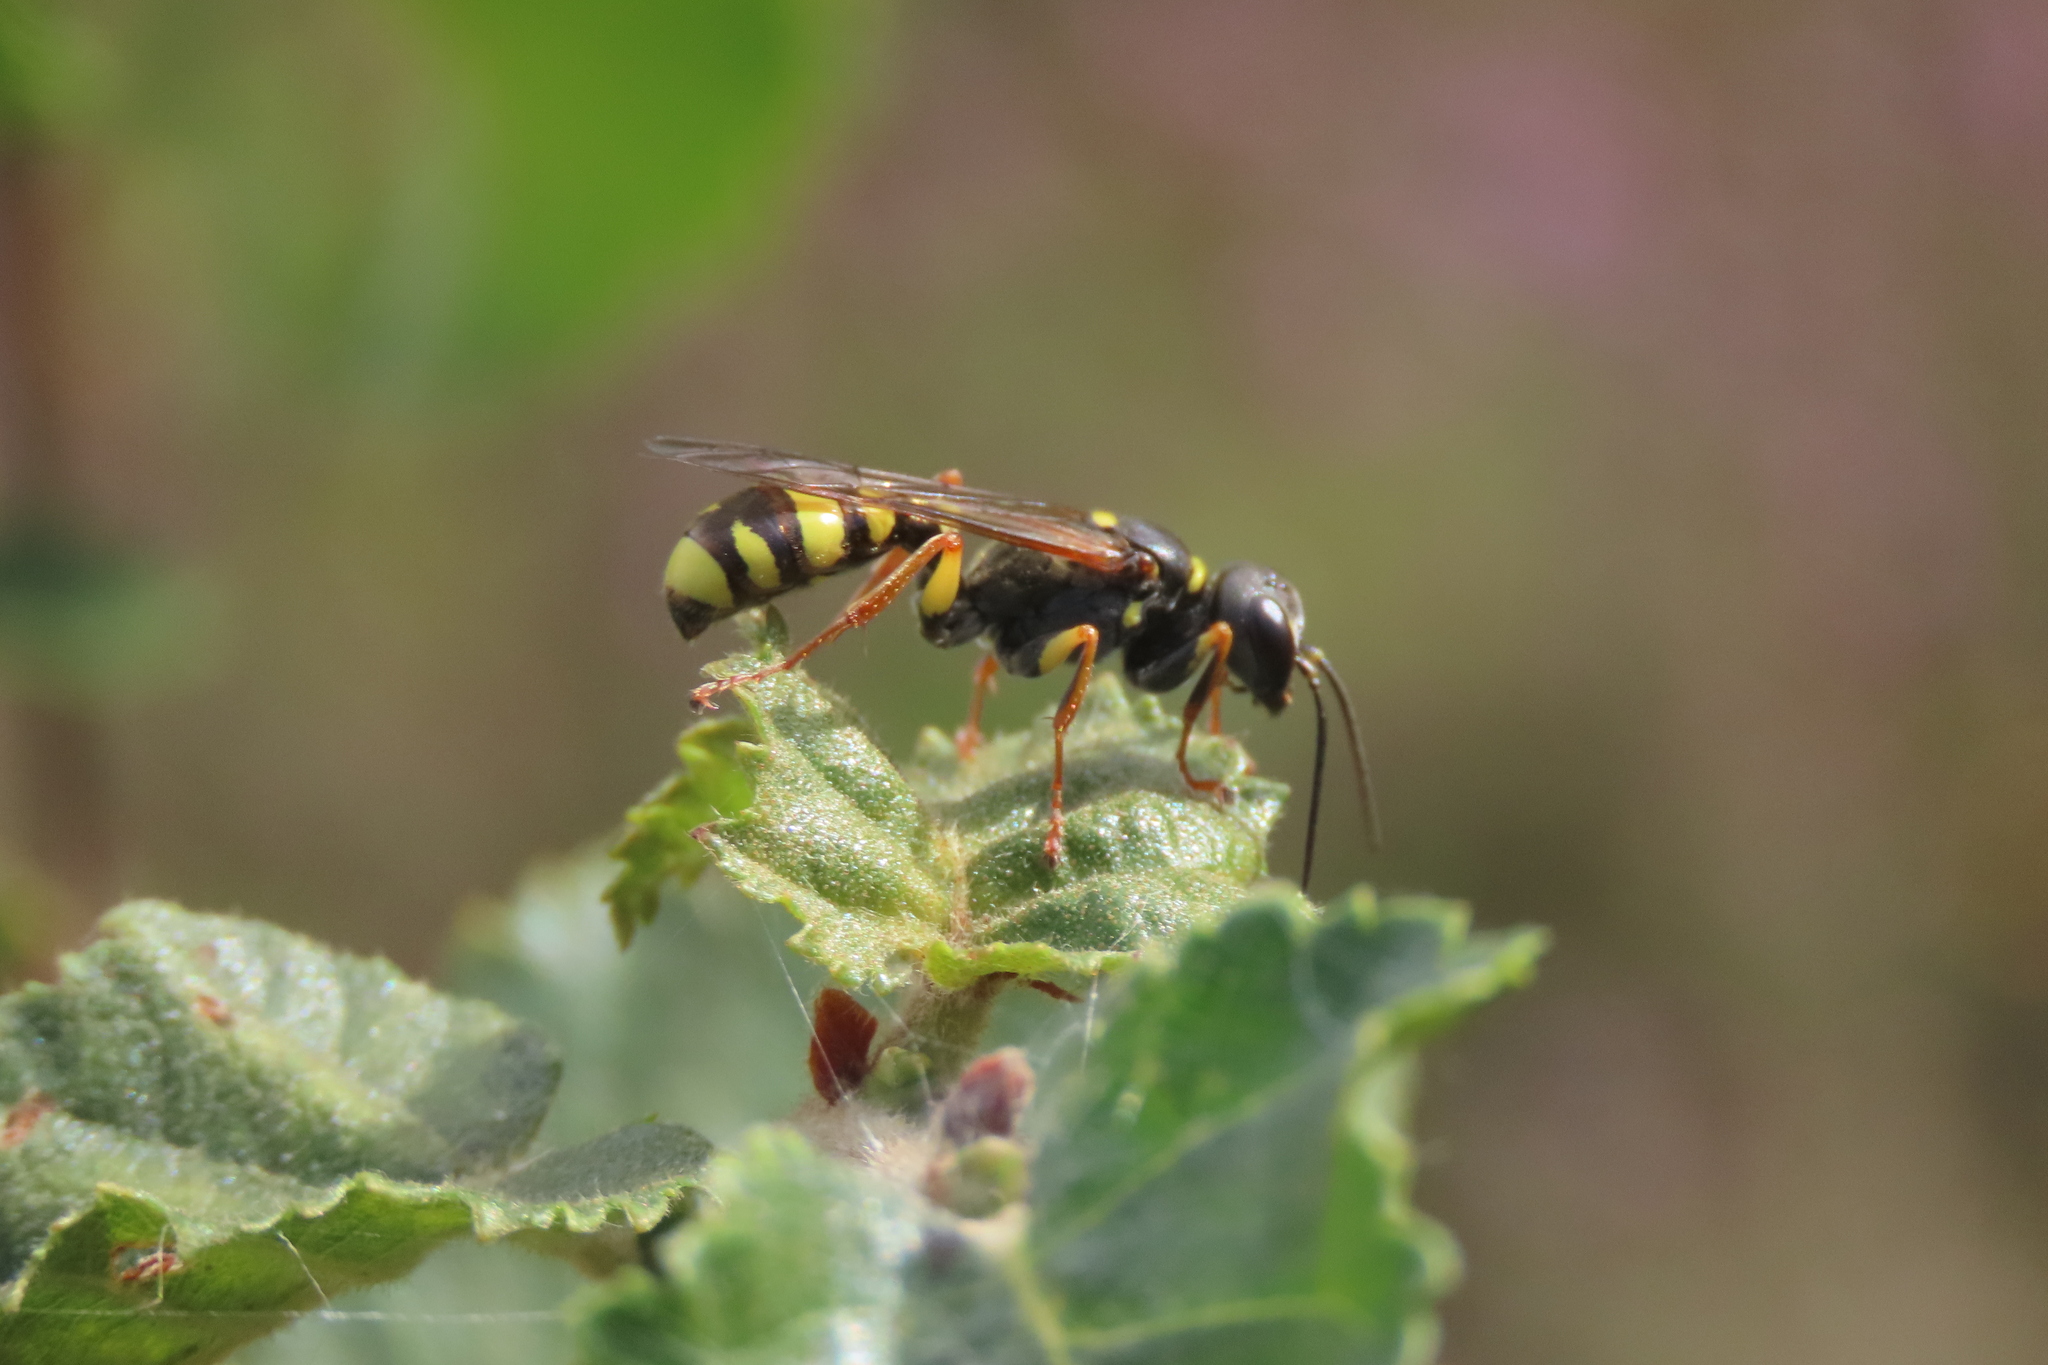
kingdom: Animalia
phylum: Arthropoda
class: Insecta
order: Hymenoptera
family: Crabronidae
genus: Mellinus
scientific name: Mellinus arvensis
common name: Field digger wasp
